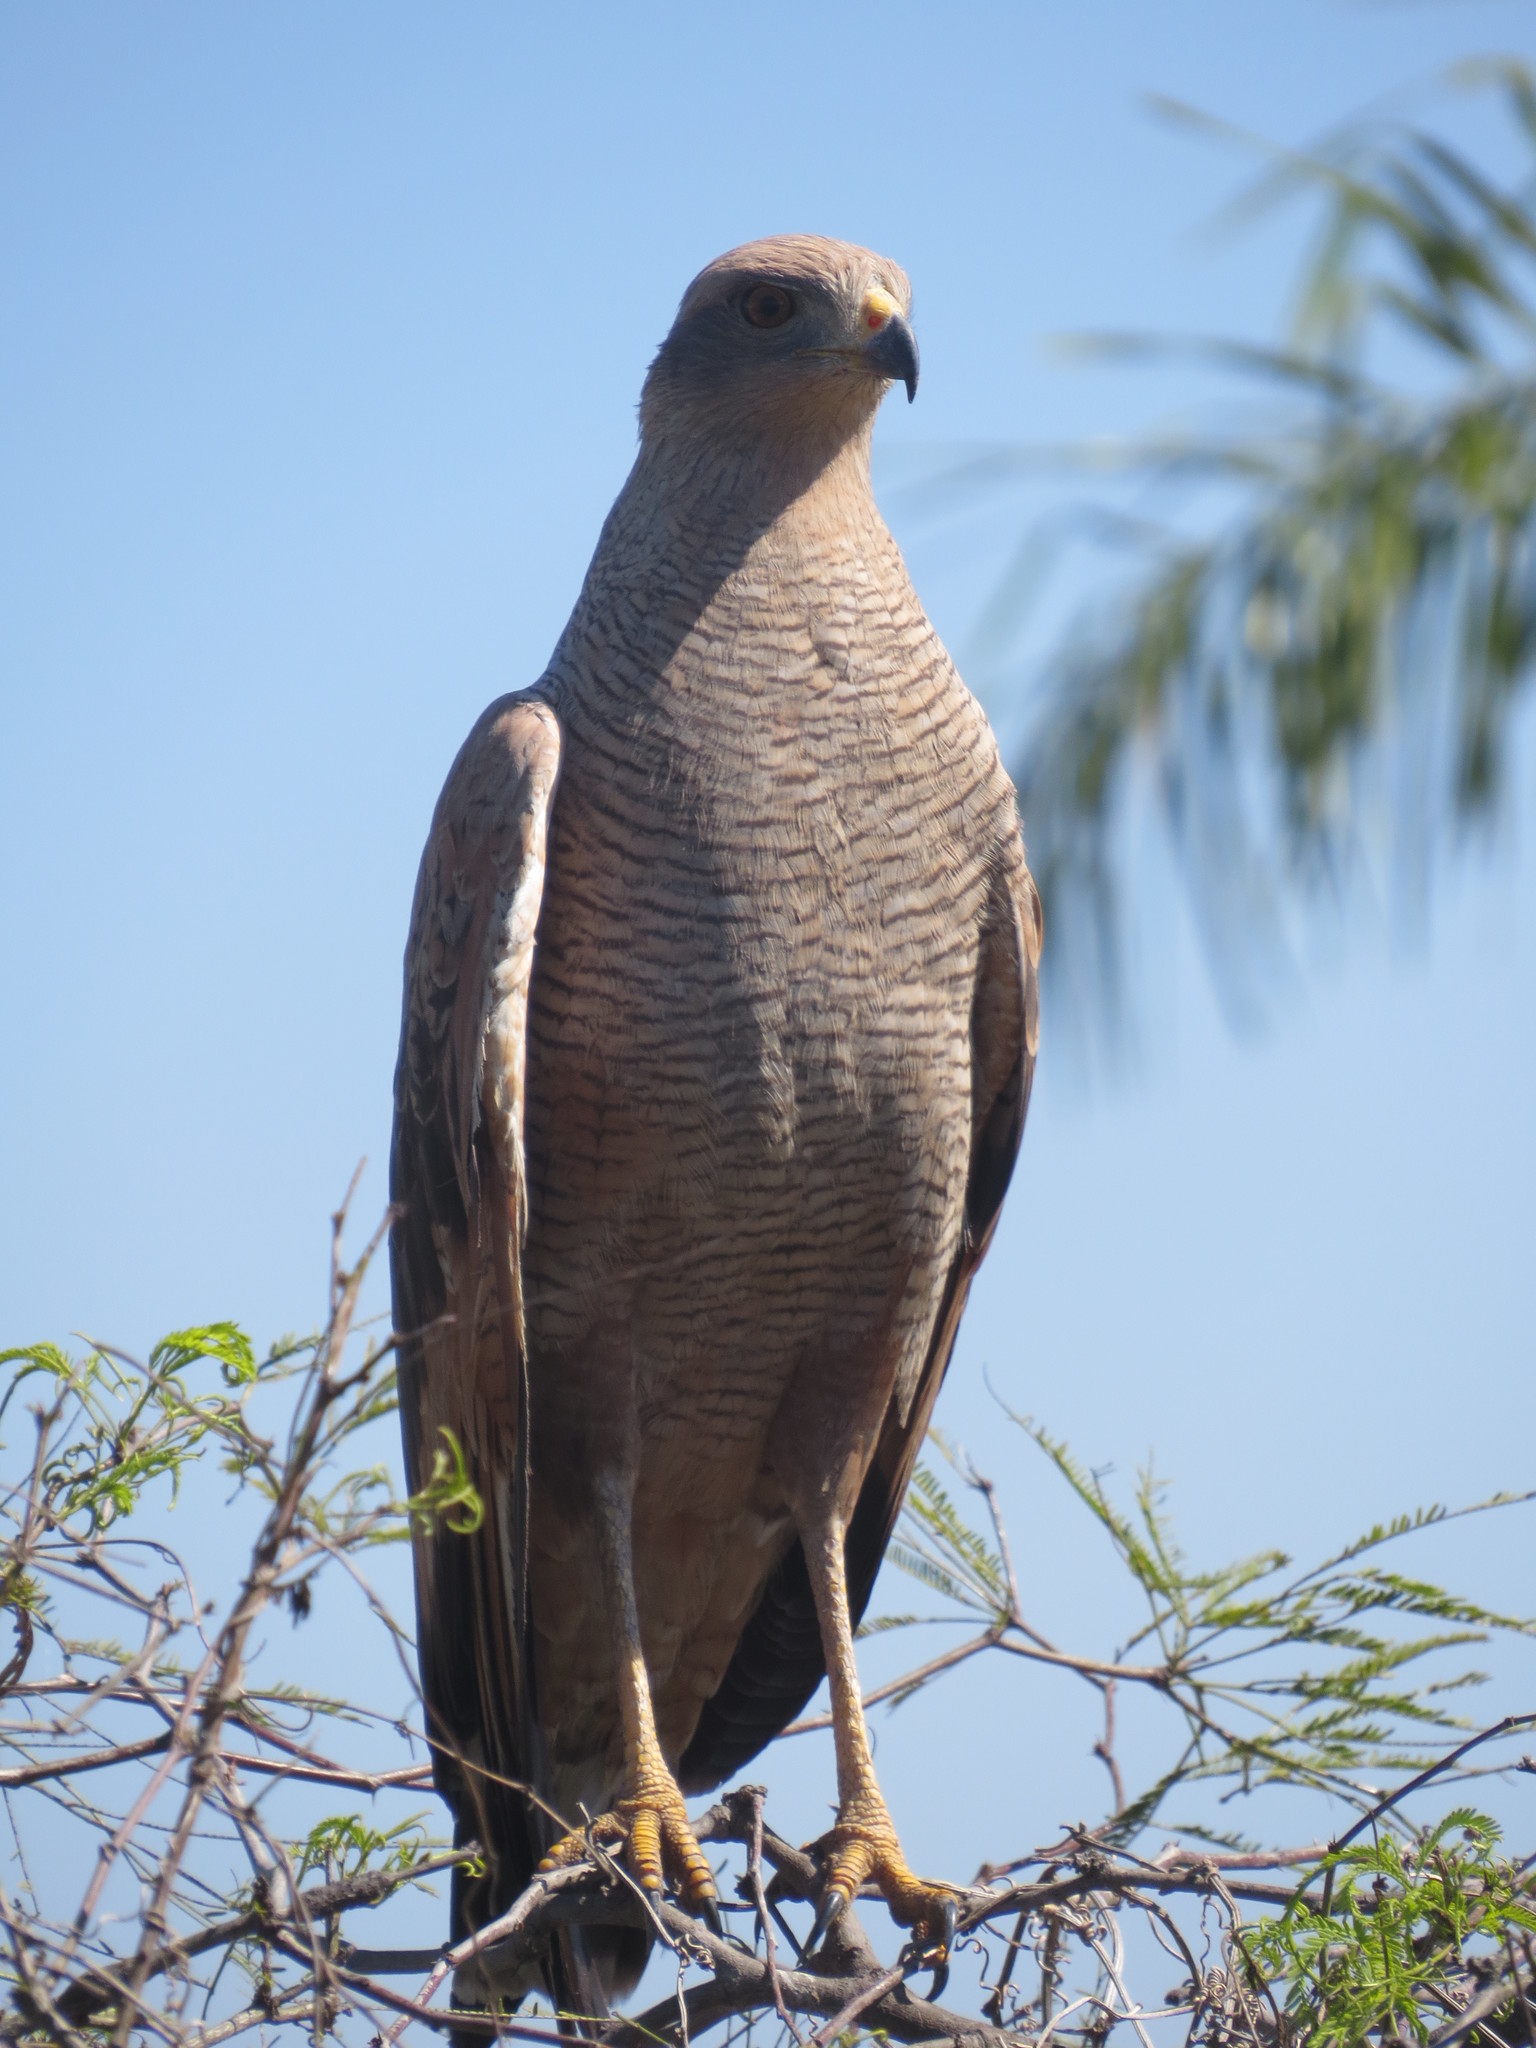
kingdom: Animalia
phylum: Chordata
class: Aves
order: Accipitriformes
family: Accipitridae
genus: Buteogallus
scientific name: Buteogallus meridionalis
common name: Savanna hawk
